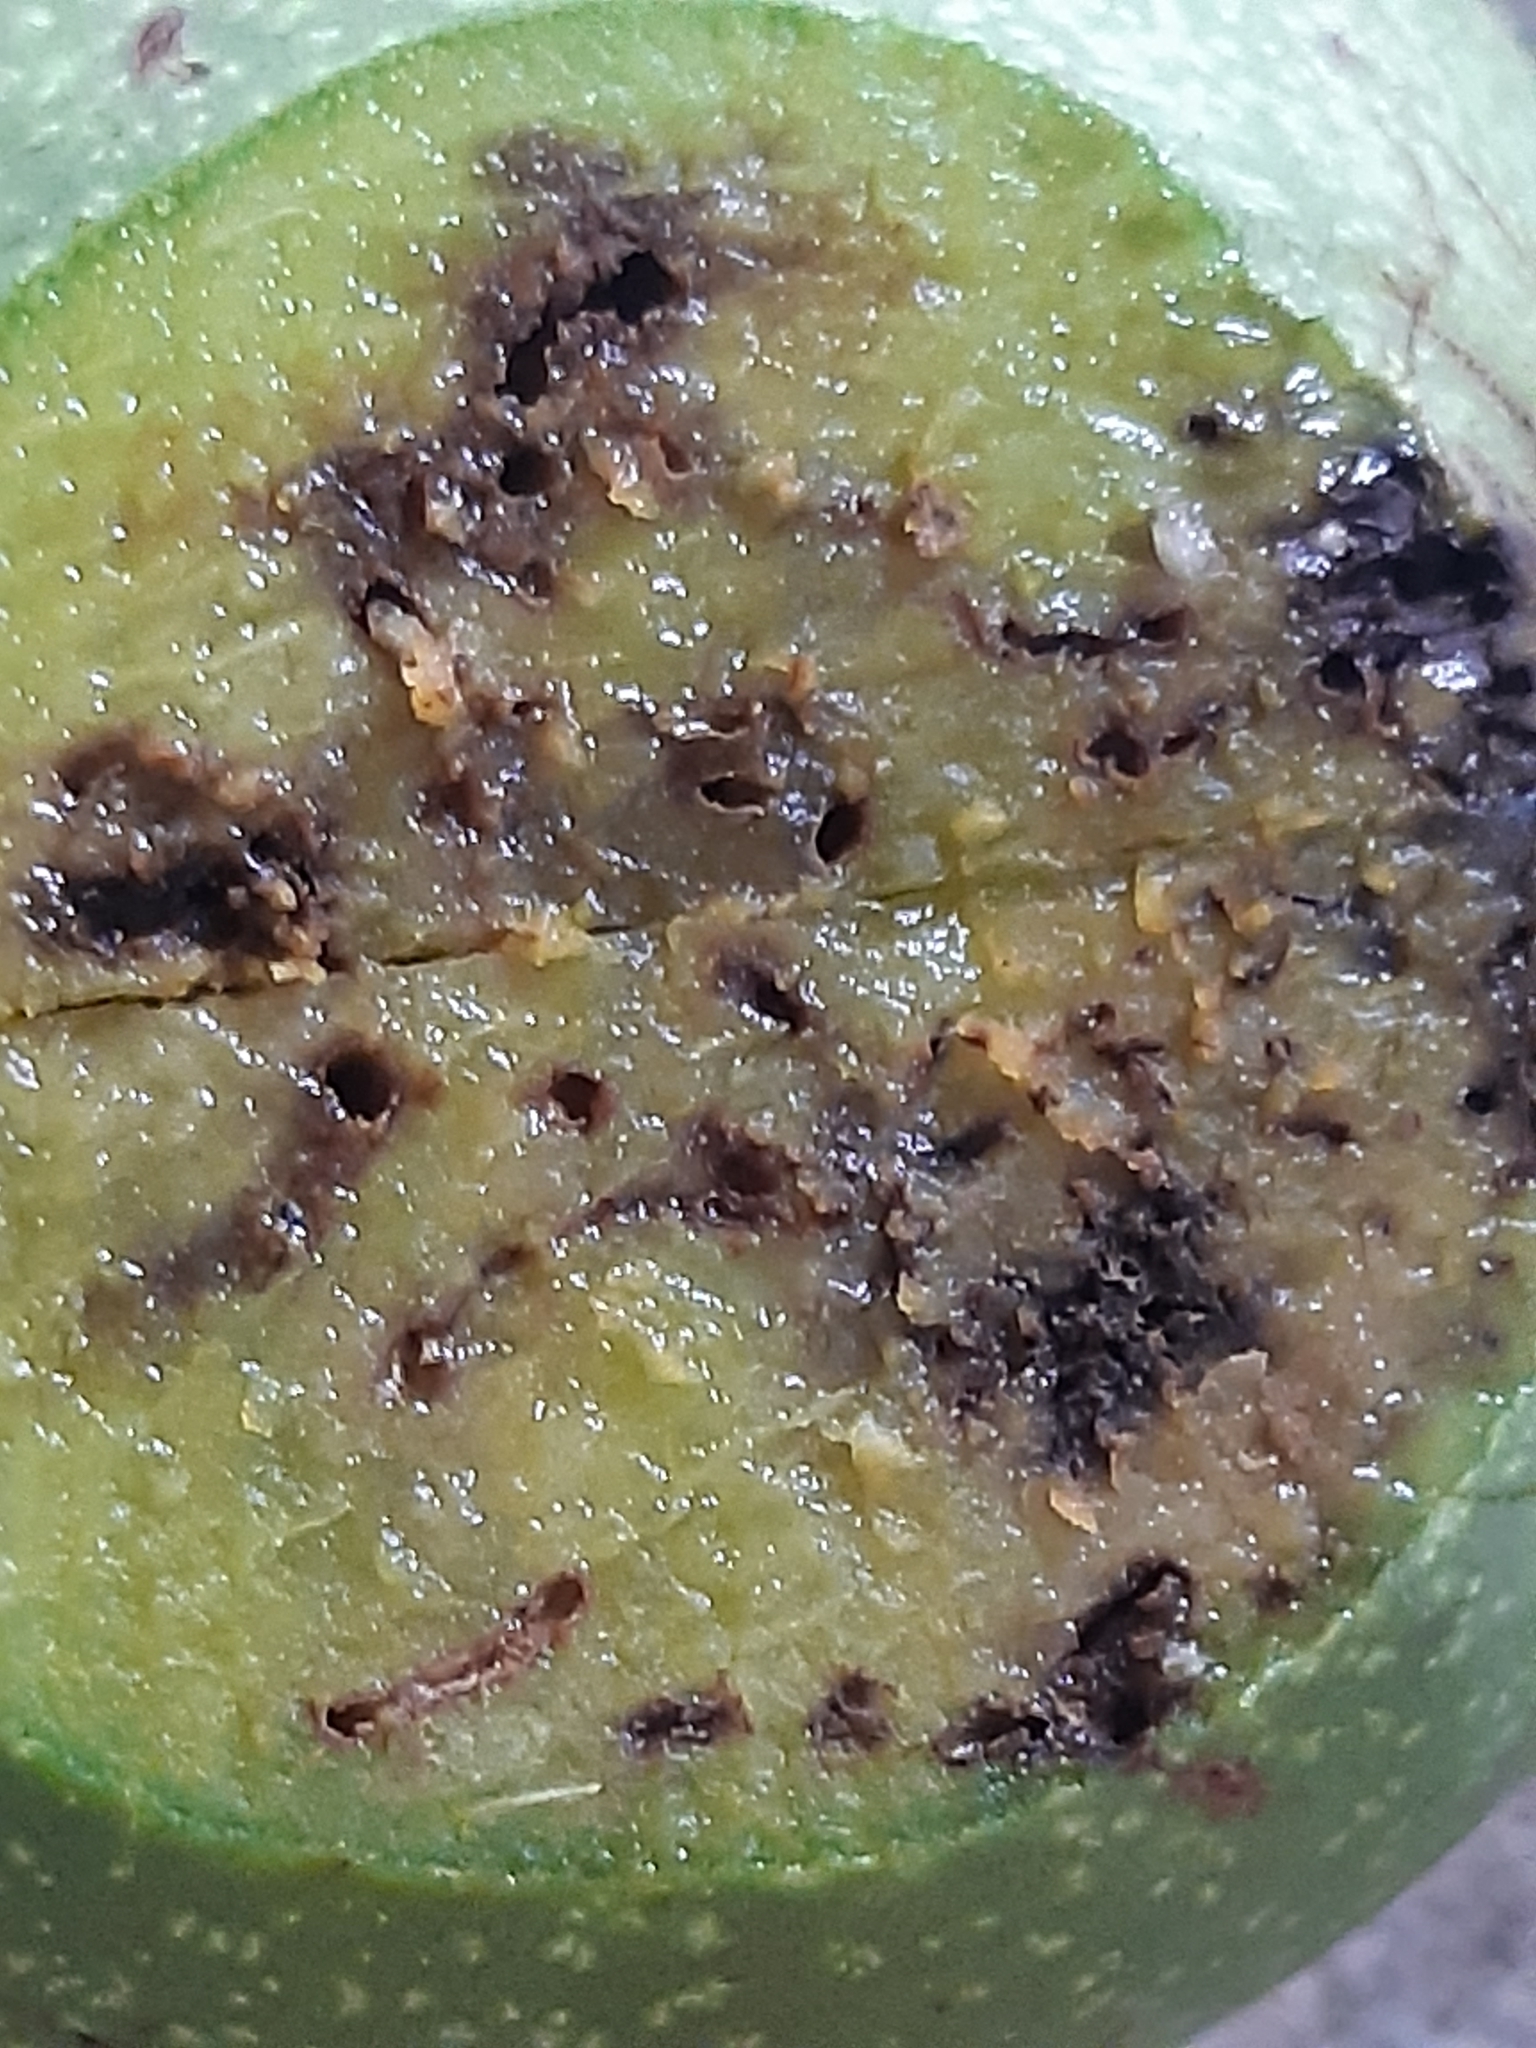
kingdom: Animalia
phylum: Arthropoda
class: Insecta
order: Diptera
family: Tephritidae
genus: Rhagoletis
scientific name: Rhagoletis completa
